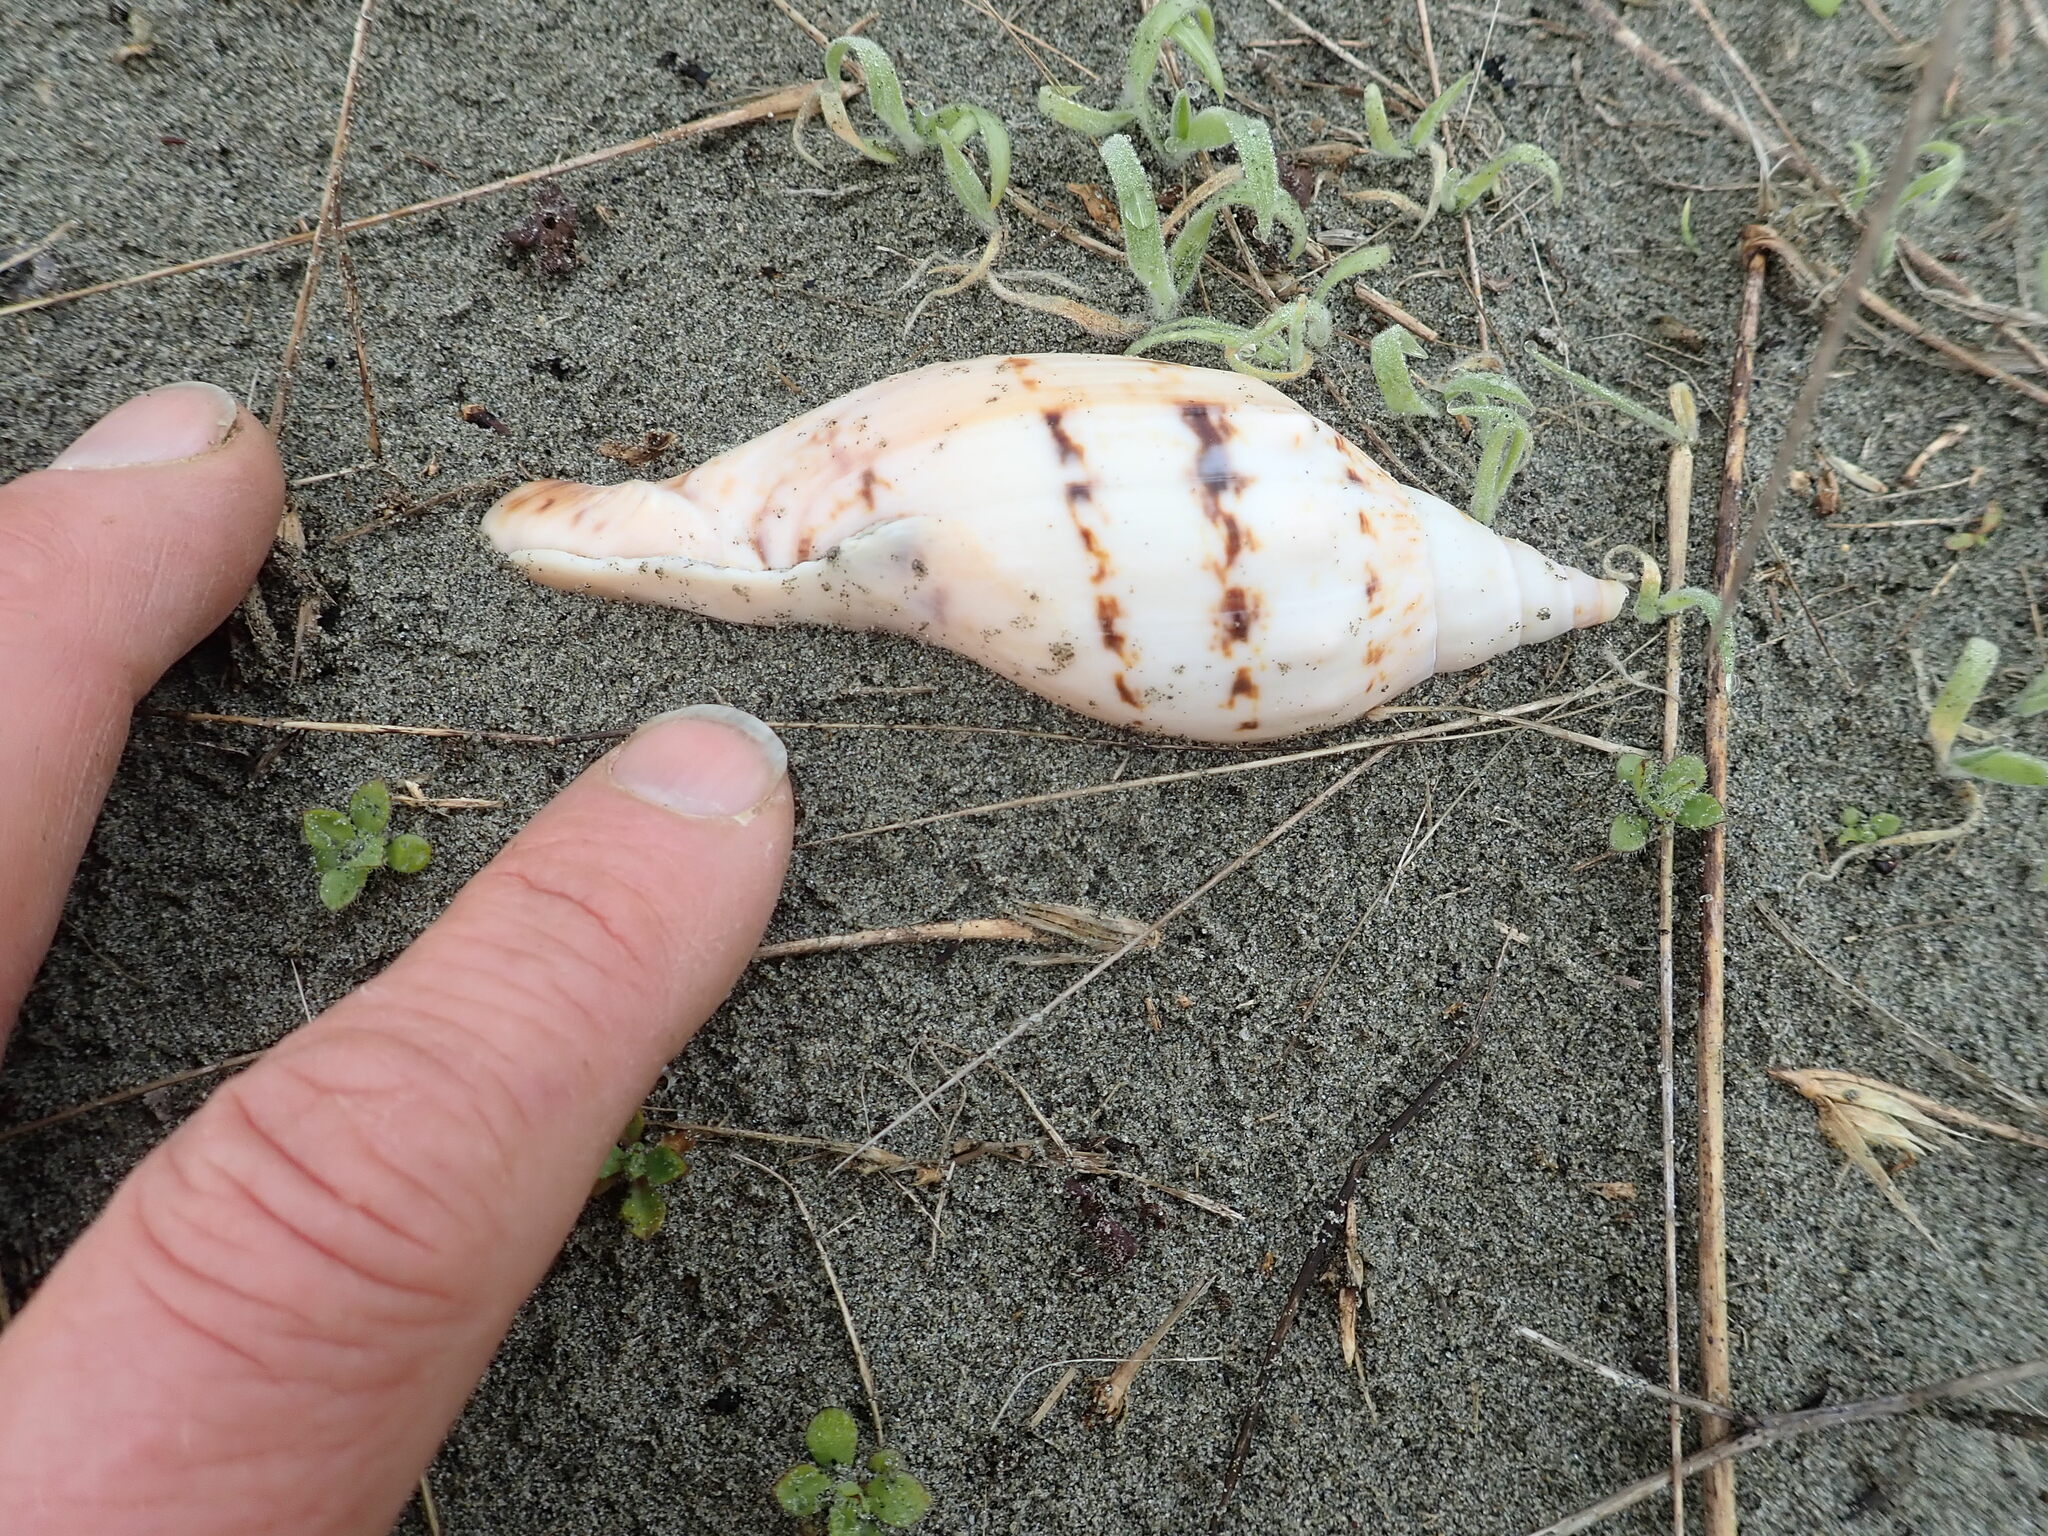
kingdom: Animalia
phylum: Mollusca
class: Gastropoda
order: Neogastropoda
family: Volutidae
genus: Alcithoe
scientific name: Alcithoe arabica
